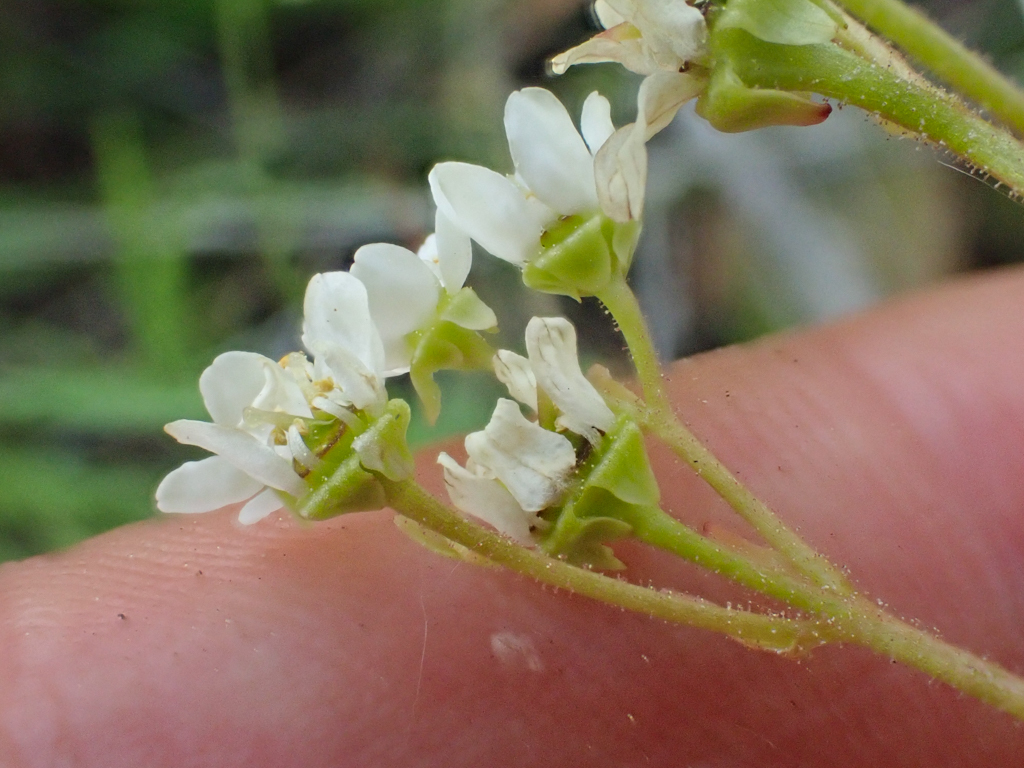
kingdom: Plantae
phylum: Tracheophyta
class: Magnoliopsida
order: Saxifragales
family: Saxifragaceae
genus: Micranthes
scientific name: Micranthes integrifolia
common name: Wholeleaf saxifrage
